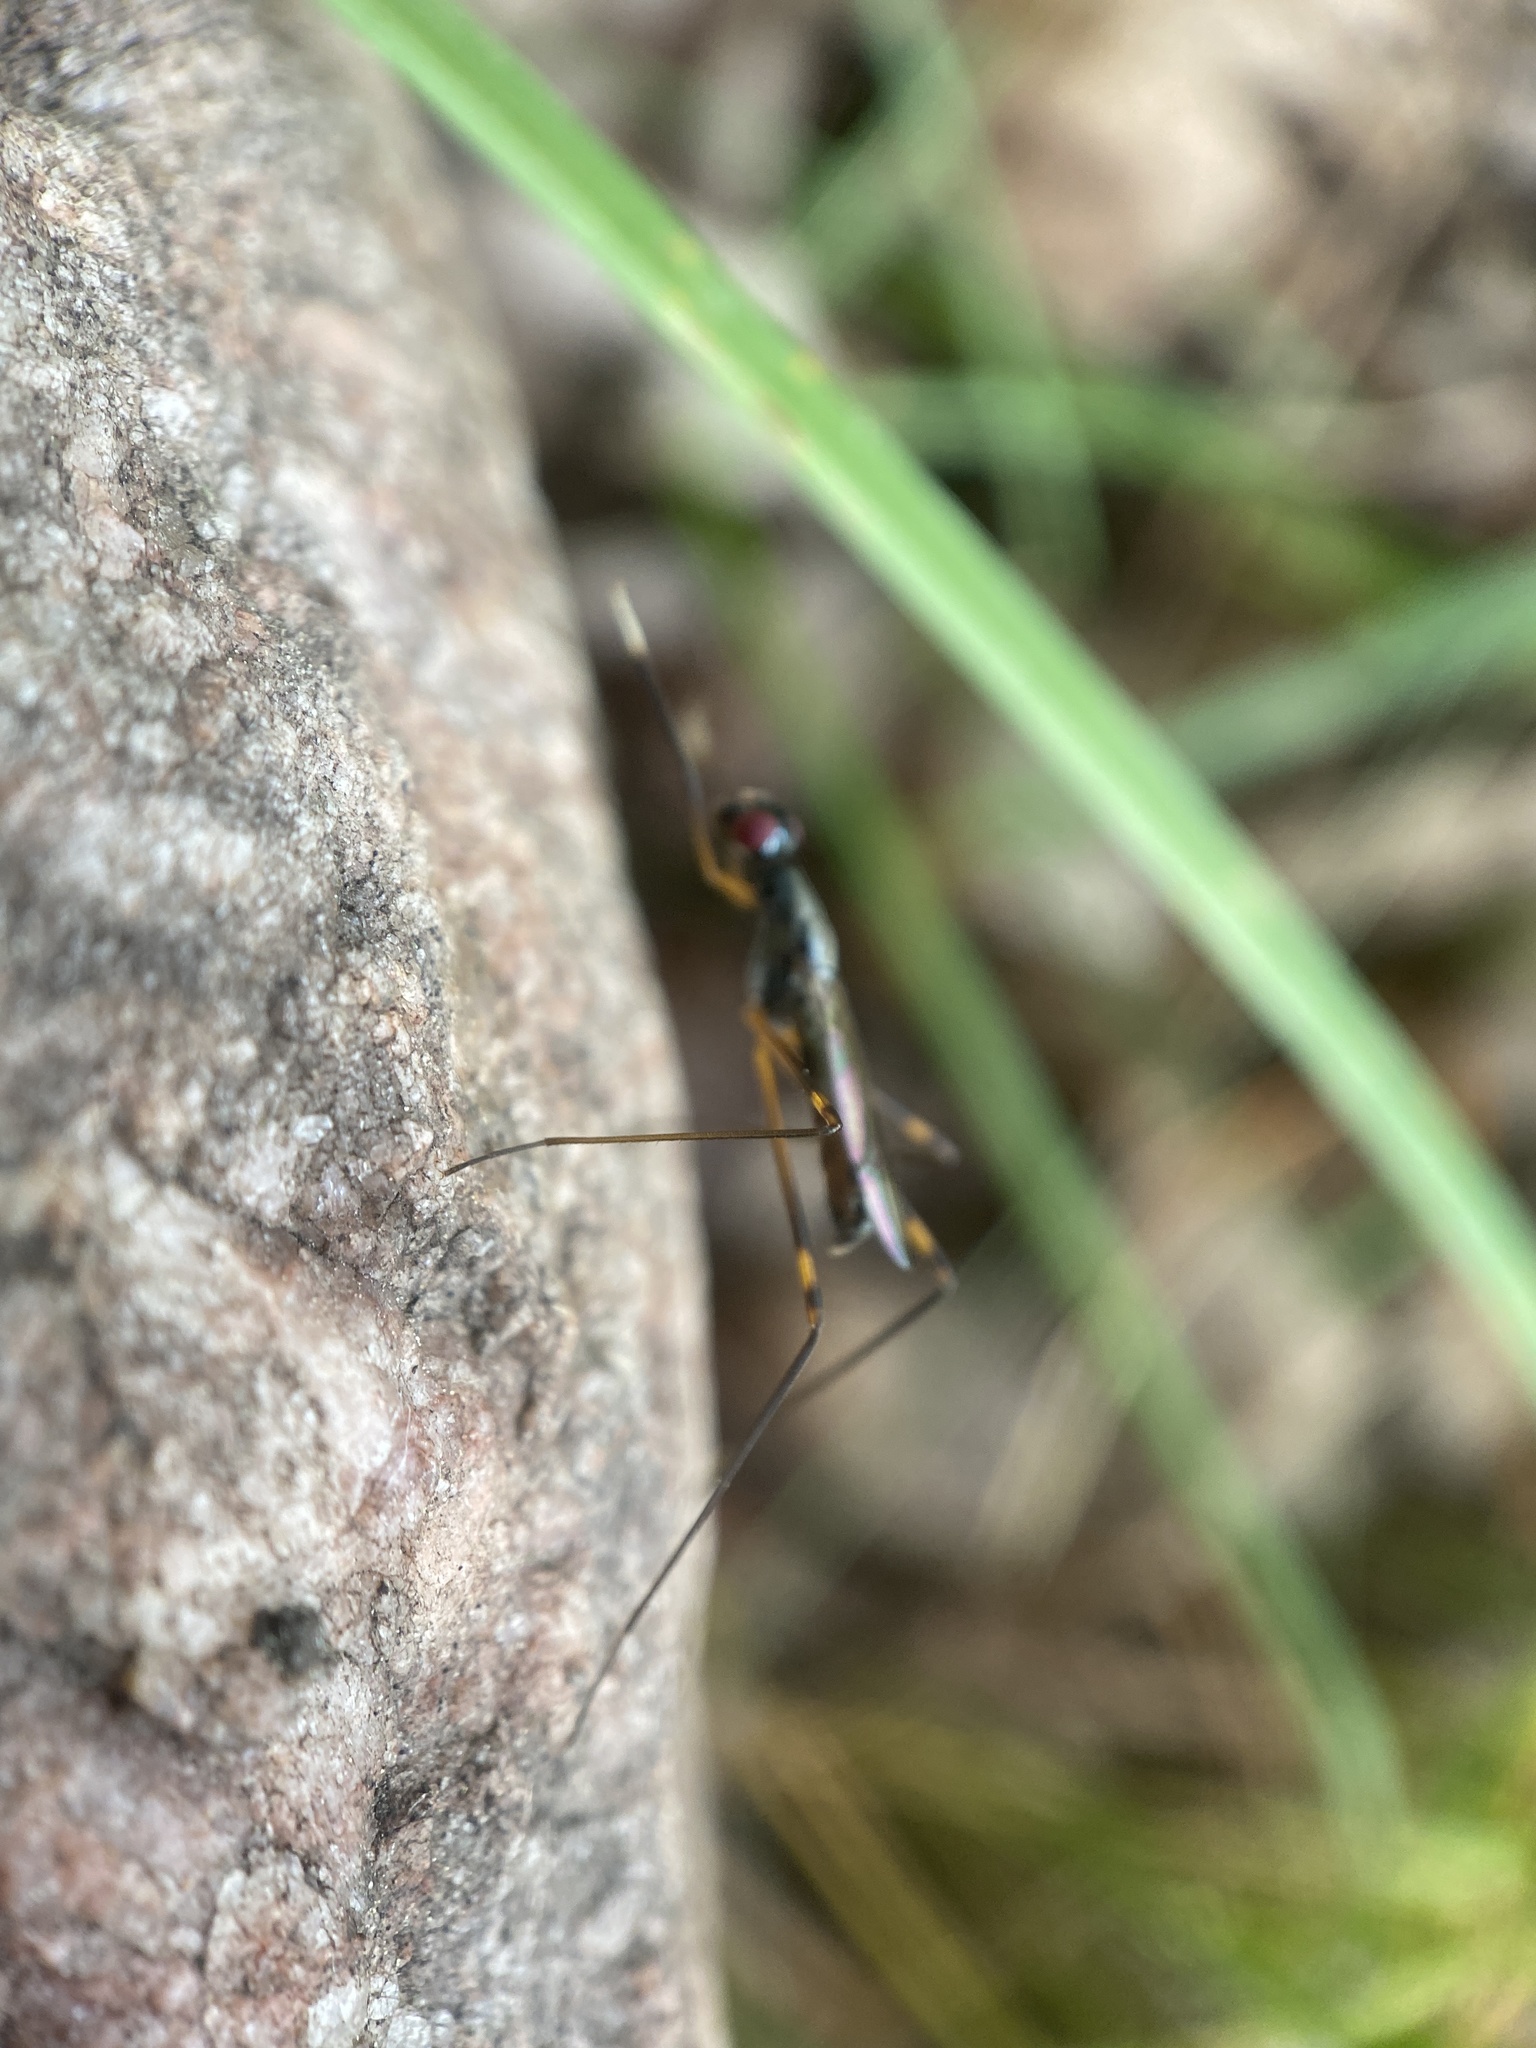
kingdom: Animalia
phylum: Arthropoda
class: Insecta
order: Diptera
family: Micropezidae
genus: Rainieria
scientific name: Rainieria antennaepes
